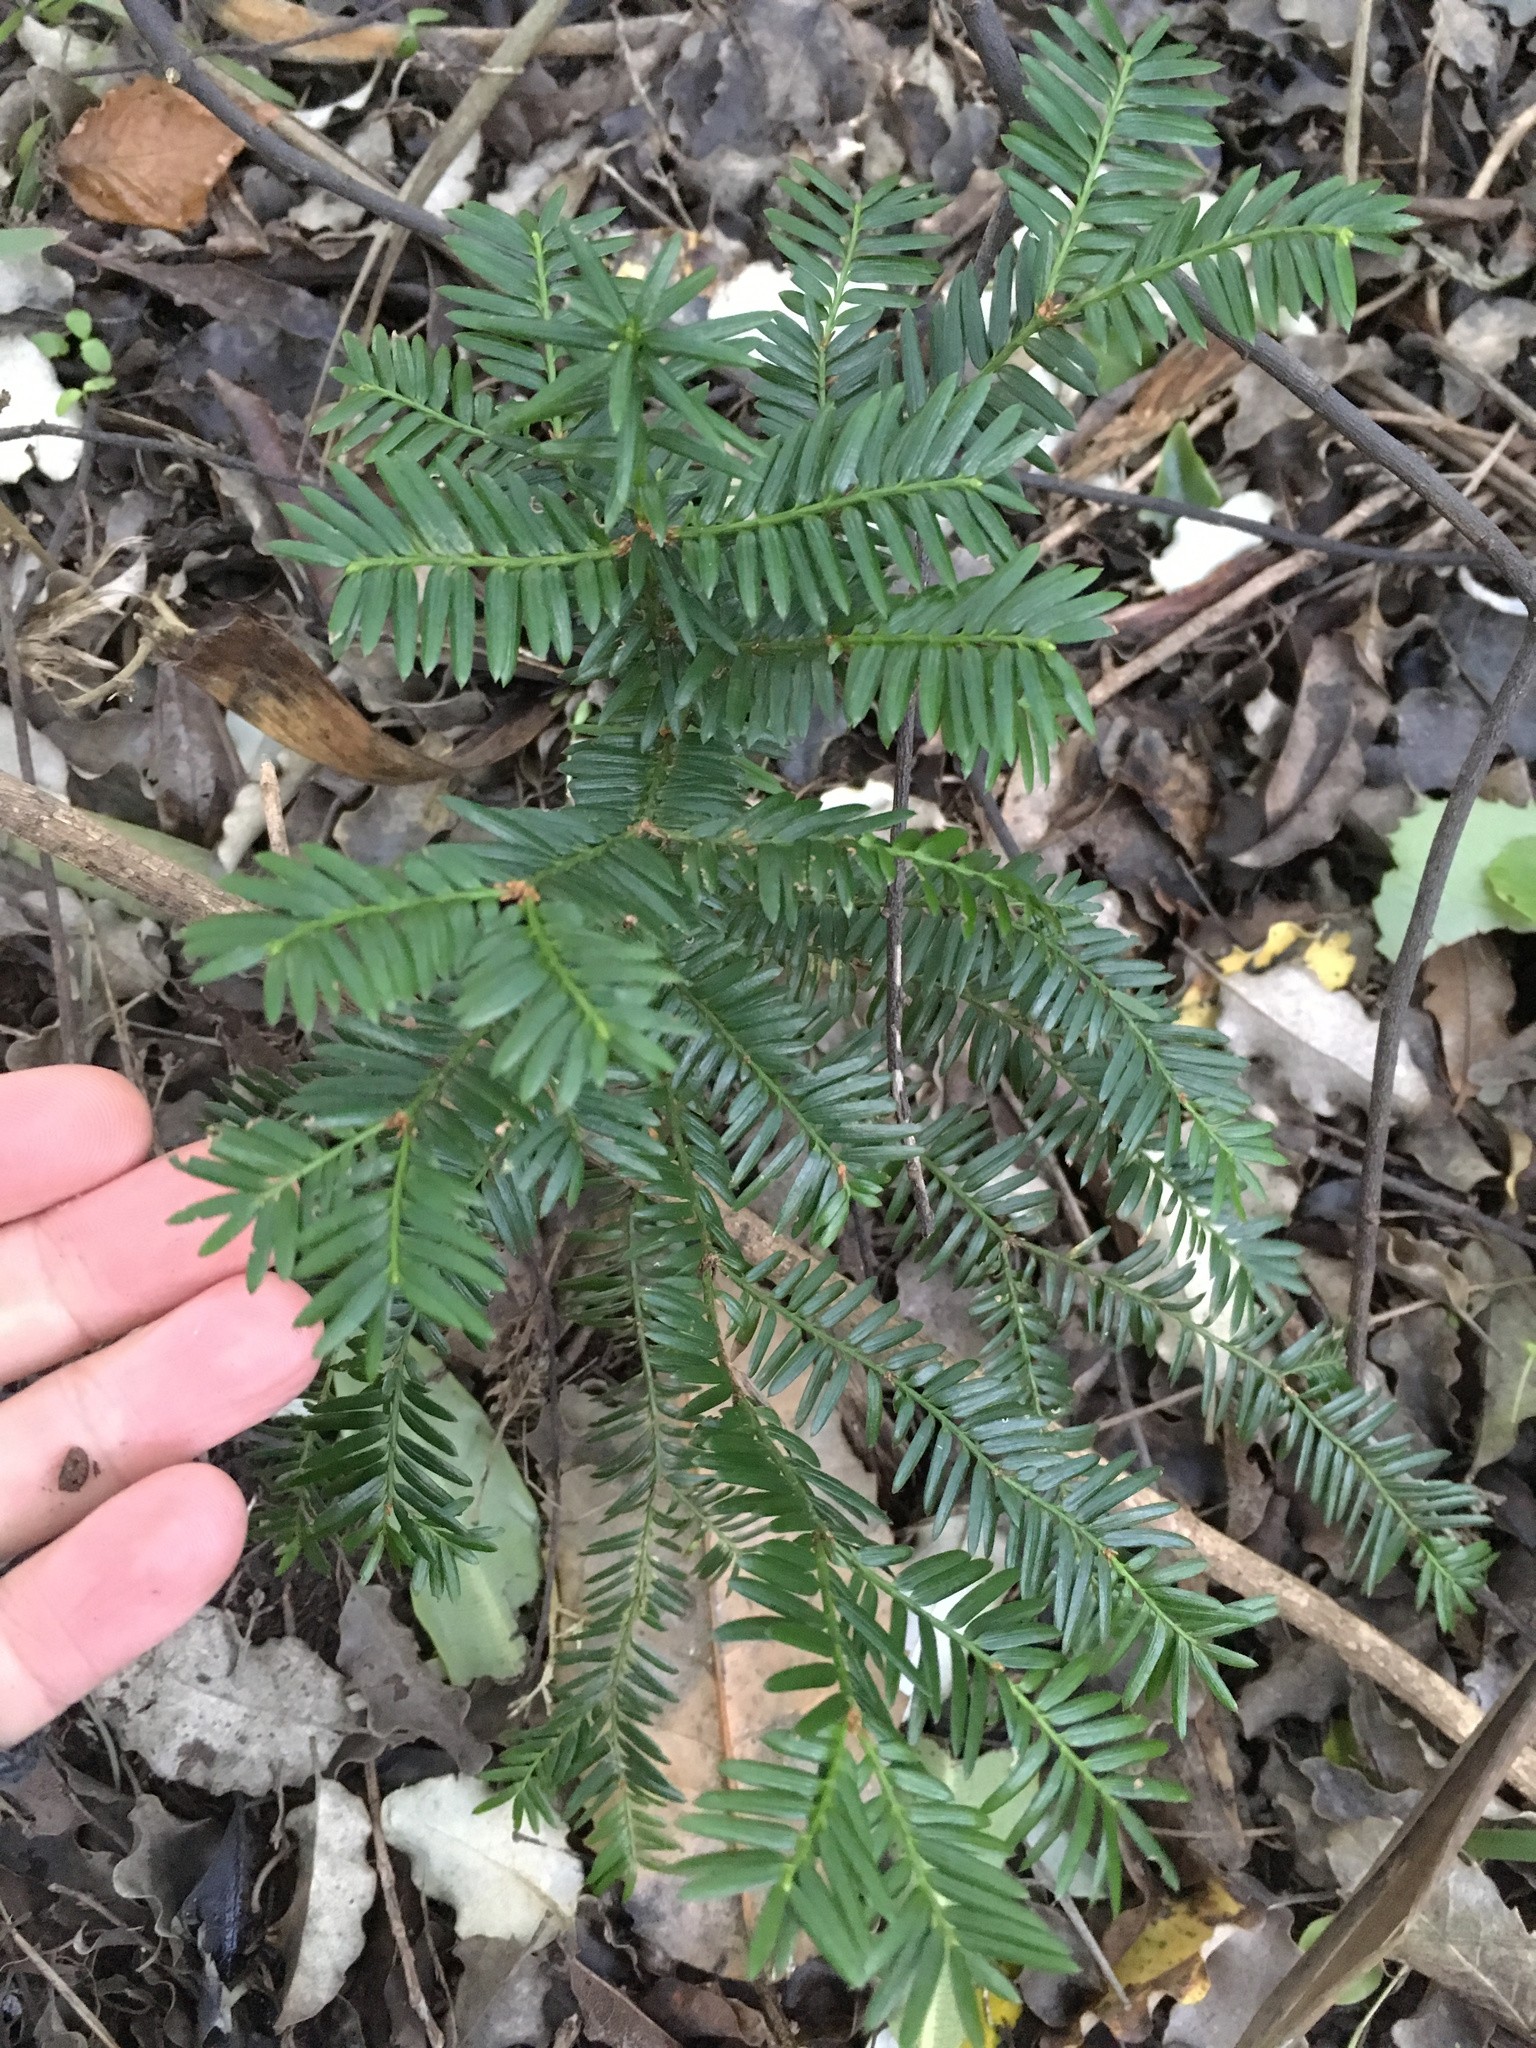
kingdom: Plantae
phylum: Tracheophyta
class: Pinopsida
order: Pinales
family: Taxaceae
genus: Taxus
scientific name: Taxus baccata
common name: Yew
